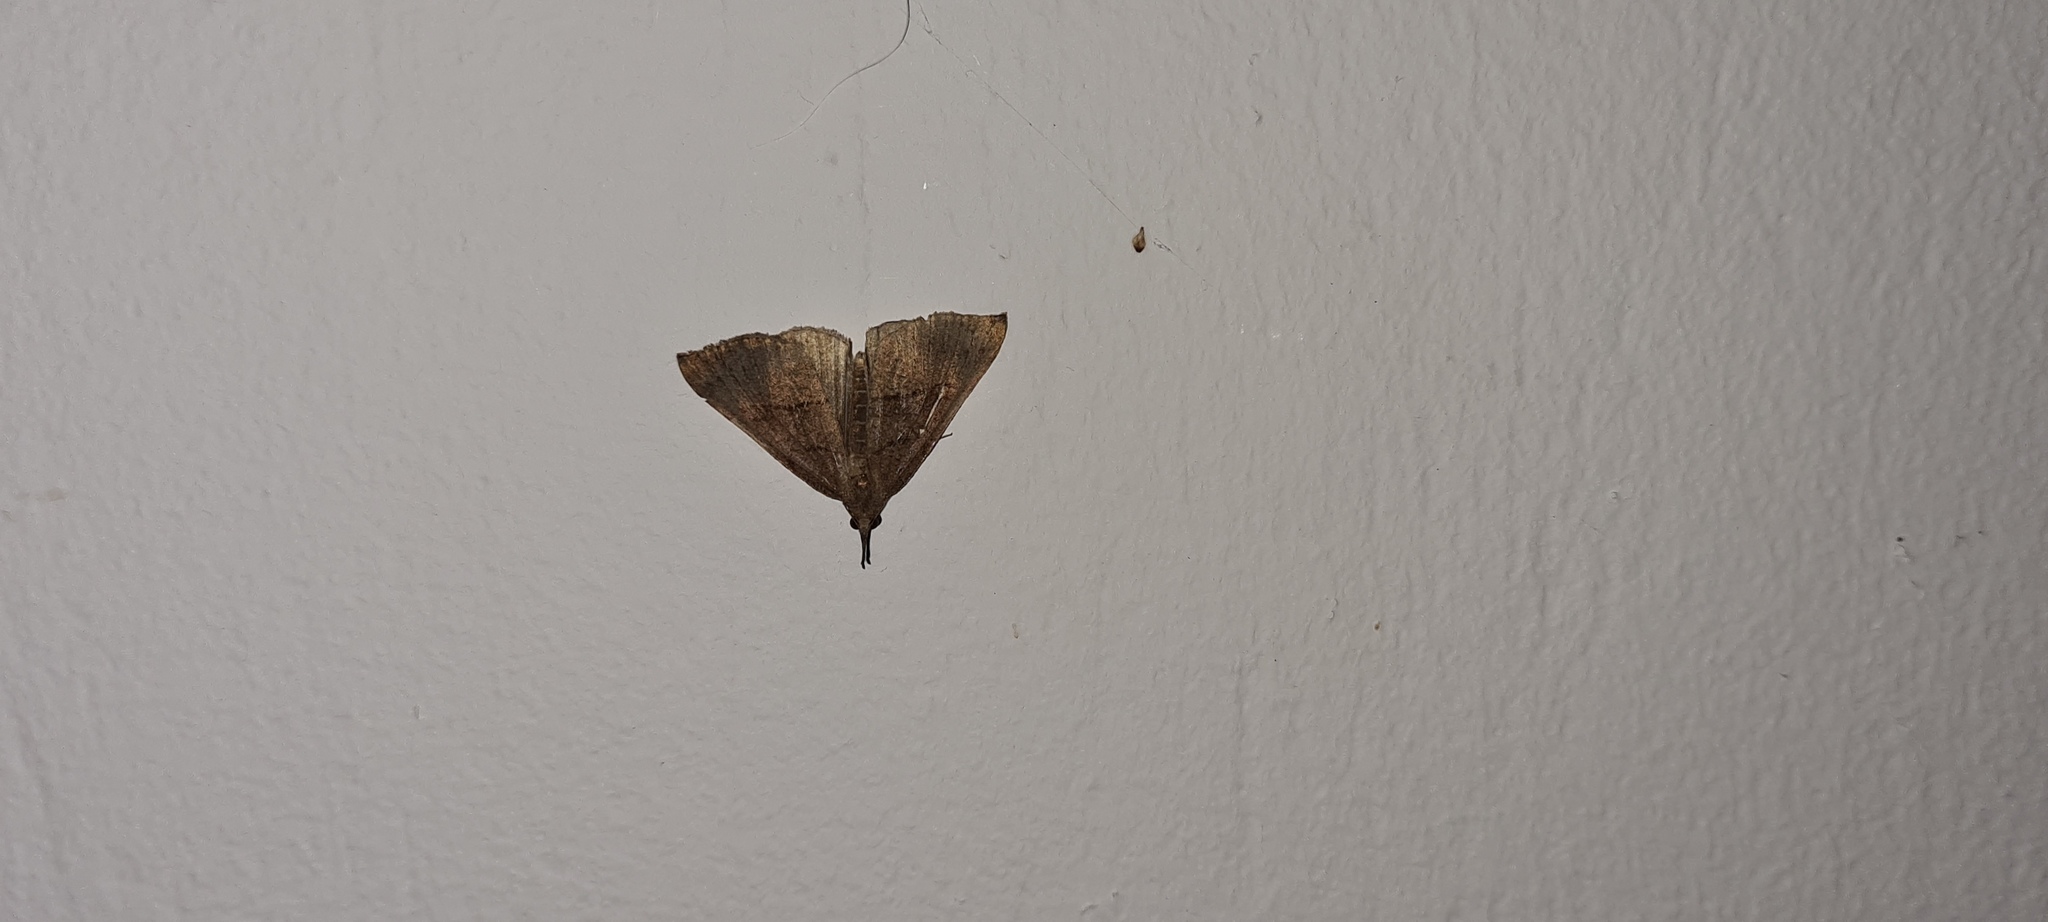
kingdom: Animalia
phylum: Arthropoda
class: Insecta
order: Lepidoptera
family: Erebidae
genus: Hypena
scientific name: Hypena proboscidalis
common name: Snout
